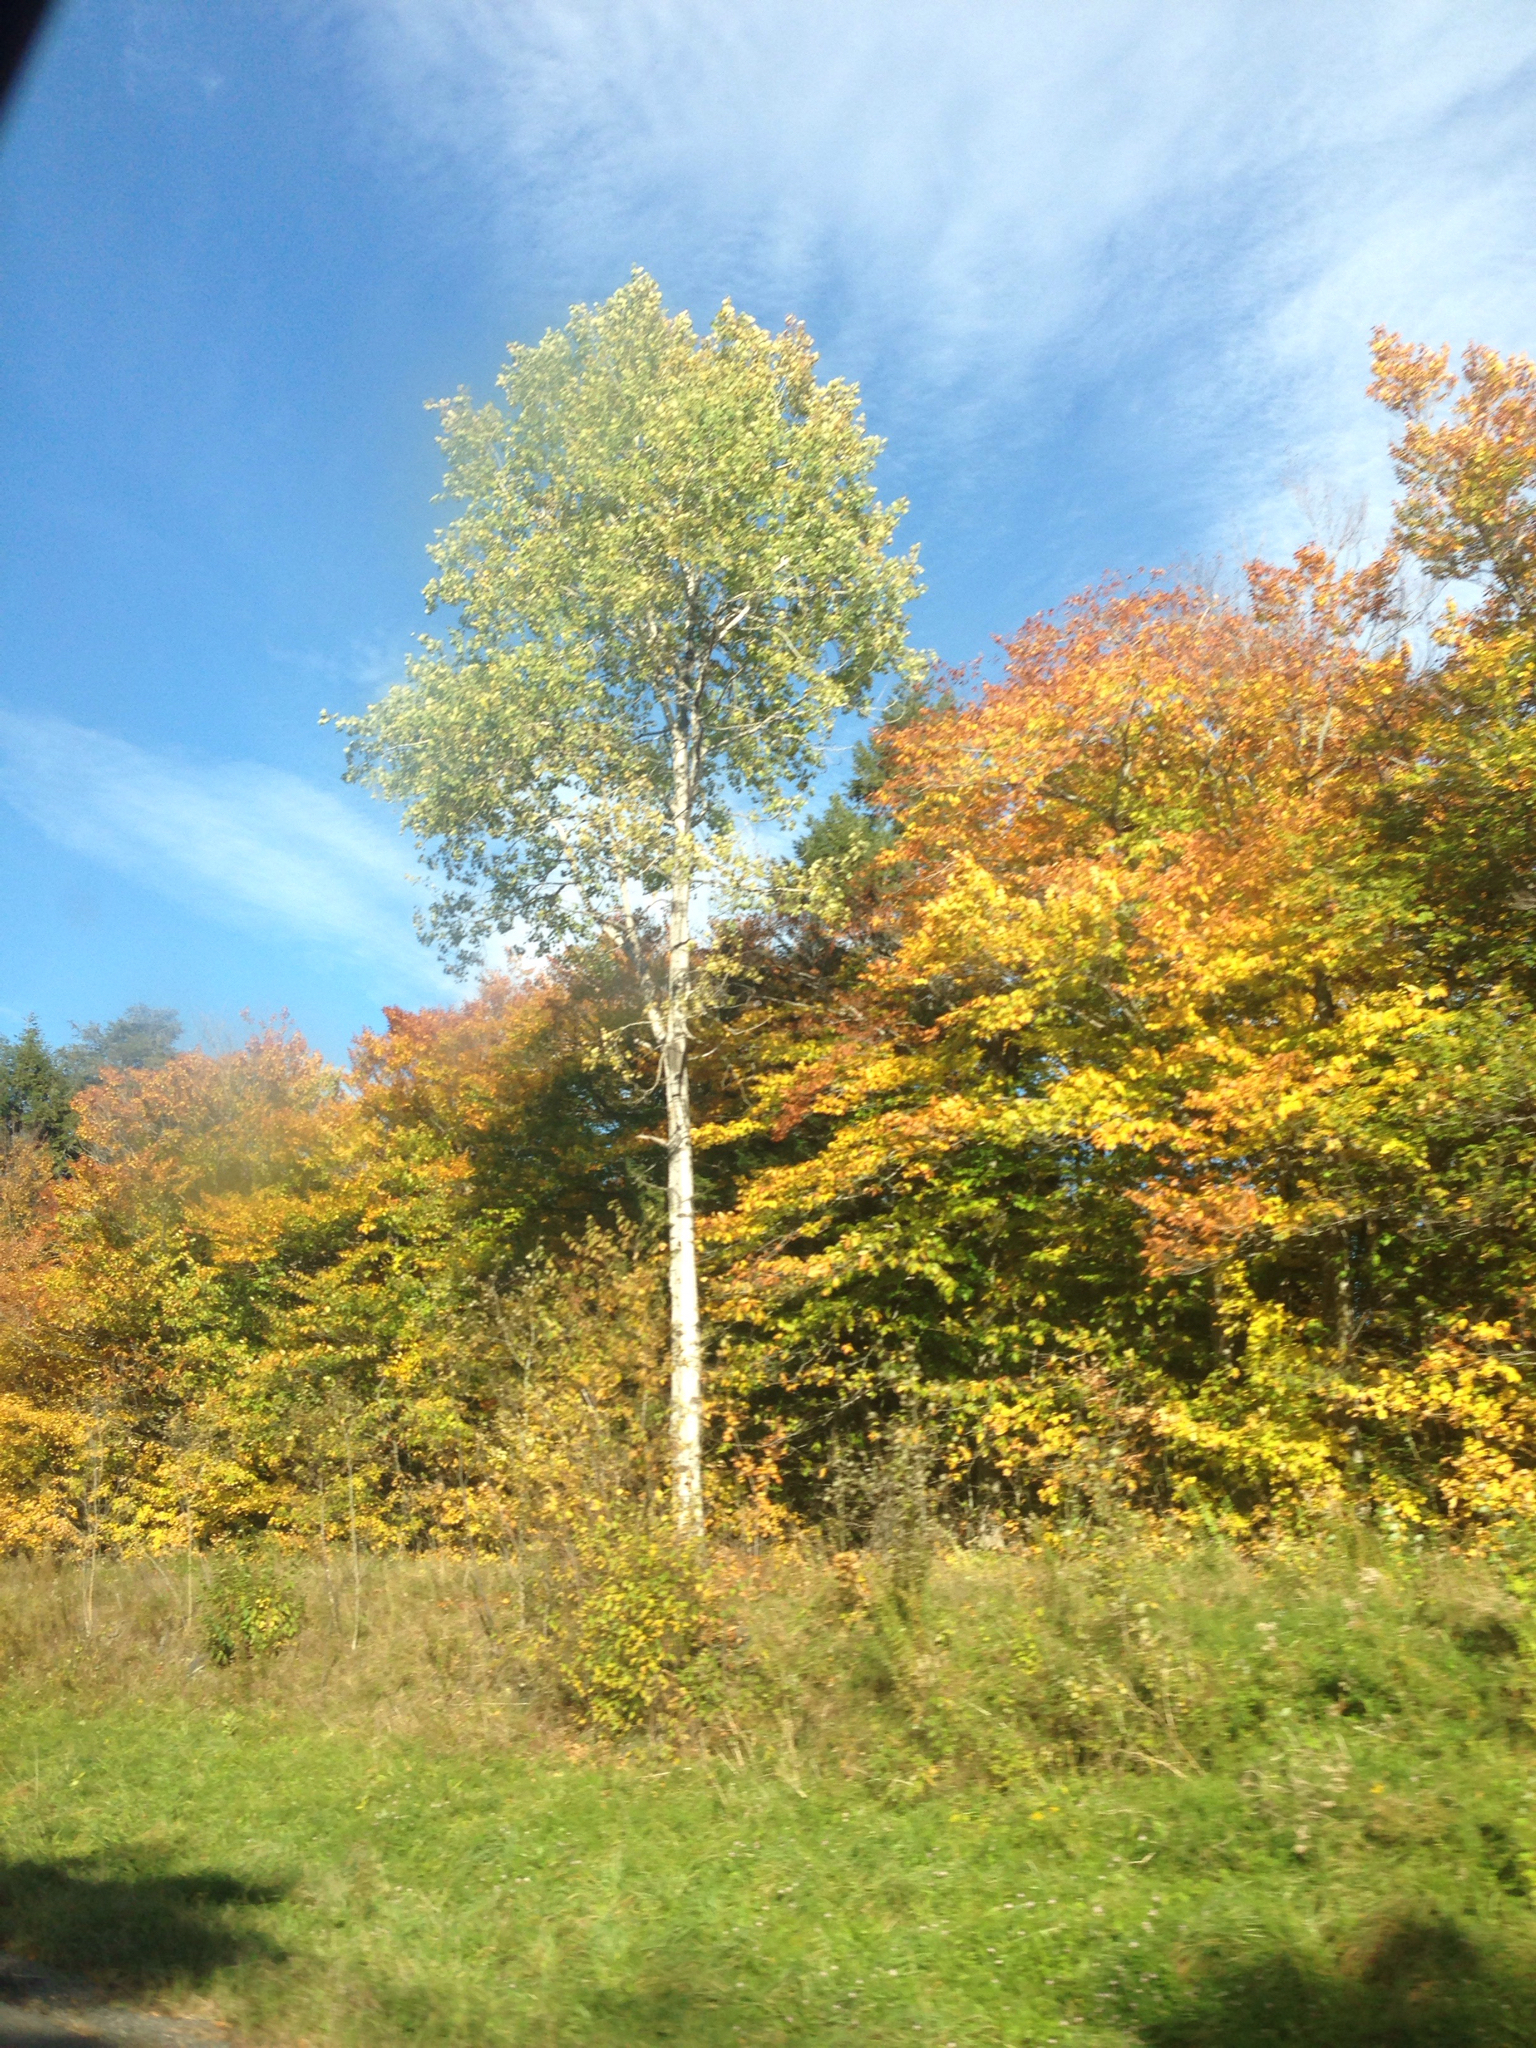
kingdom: Plantae
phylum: Tracheophyta
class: Magnoliopsida
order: Malpighiales
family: Salicaceae
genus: Populus
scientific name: Populus tremuloides
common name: Quaking aspen
